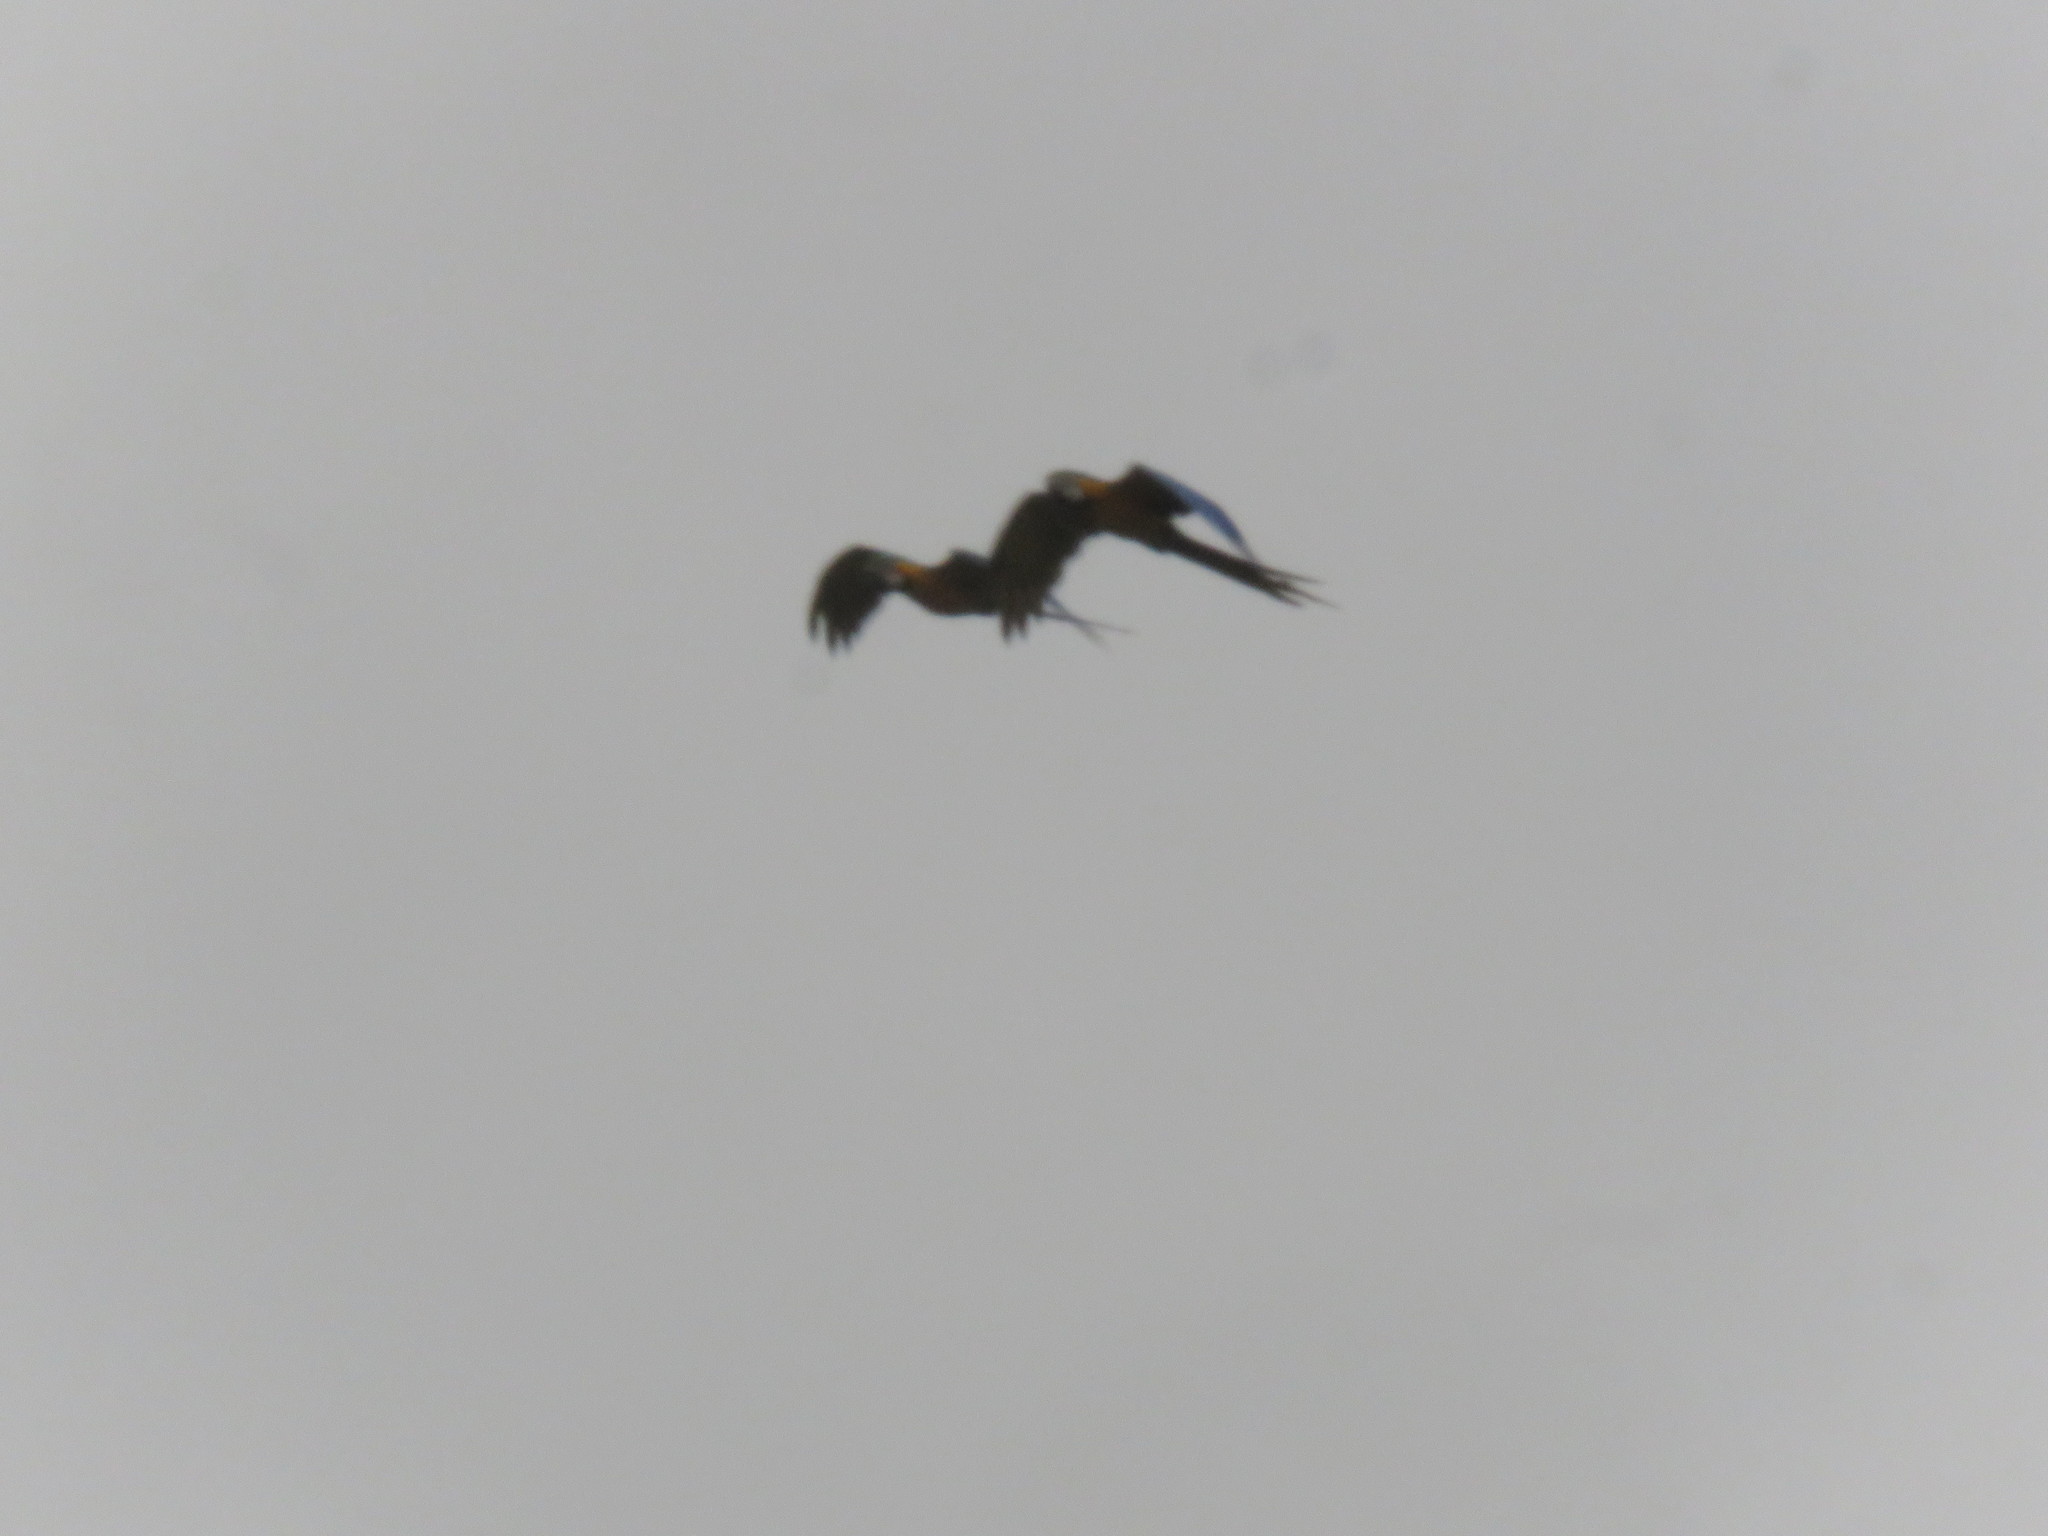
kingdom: Animalia
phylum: Chordata
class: Aves
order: Psittaciformes
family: Psittacidae
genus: Ara
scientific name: Ara ararauna
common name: Blue-and-yellow macaw
